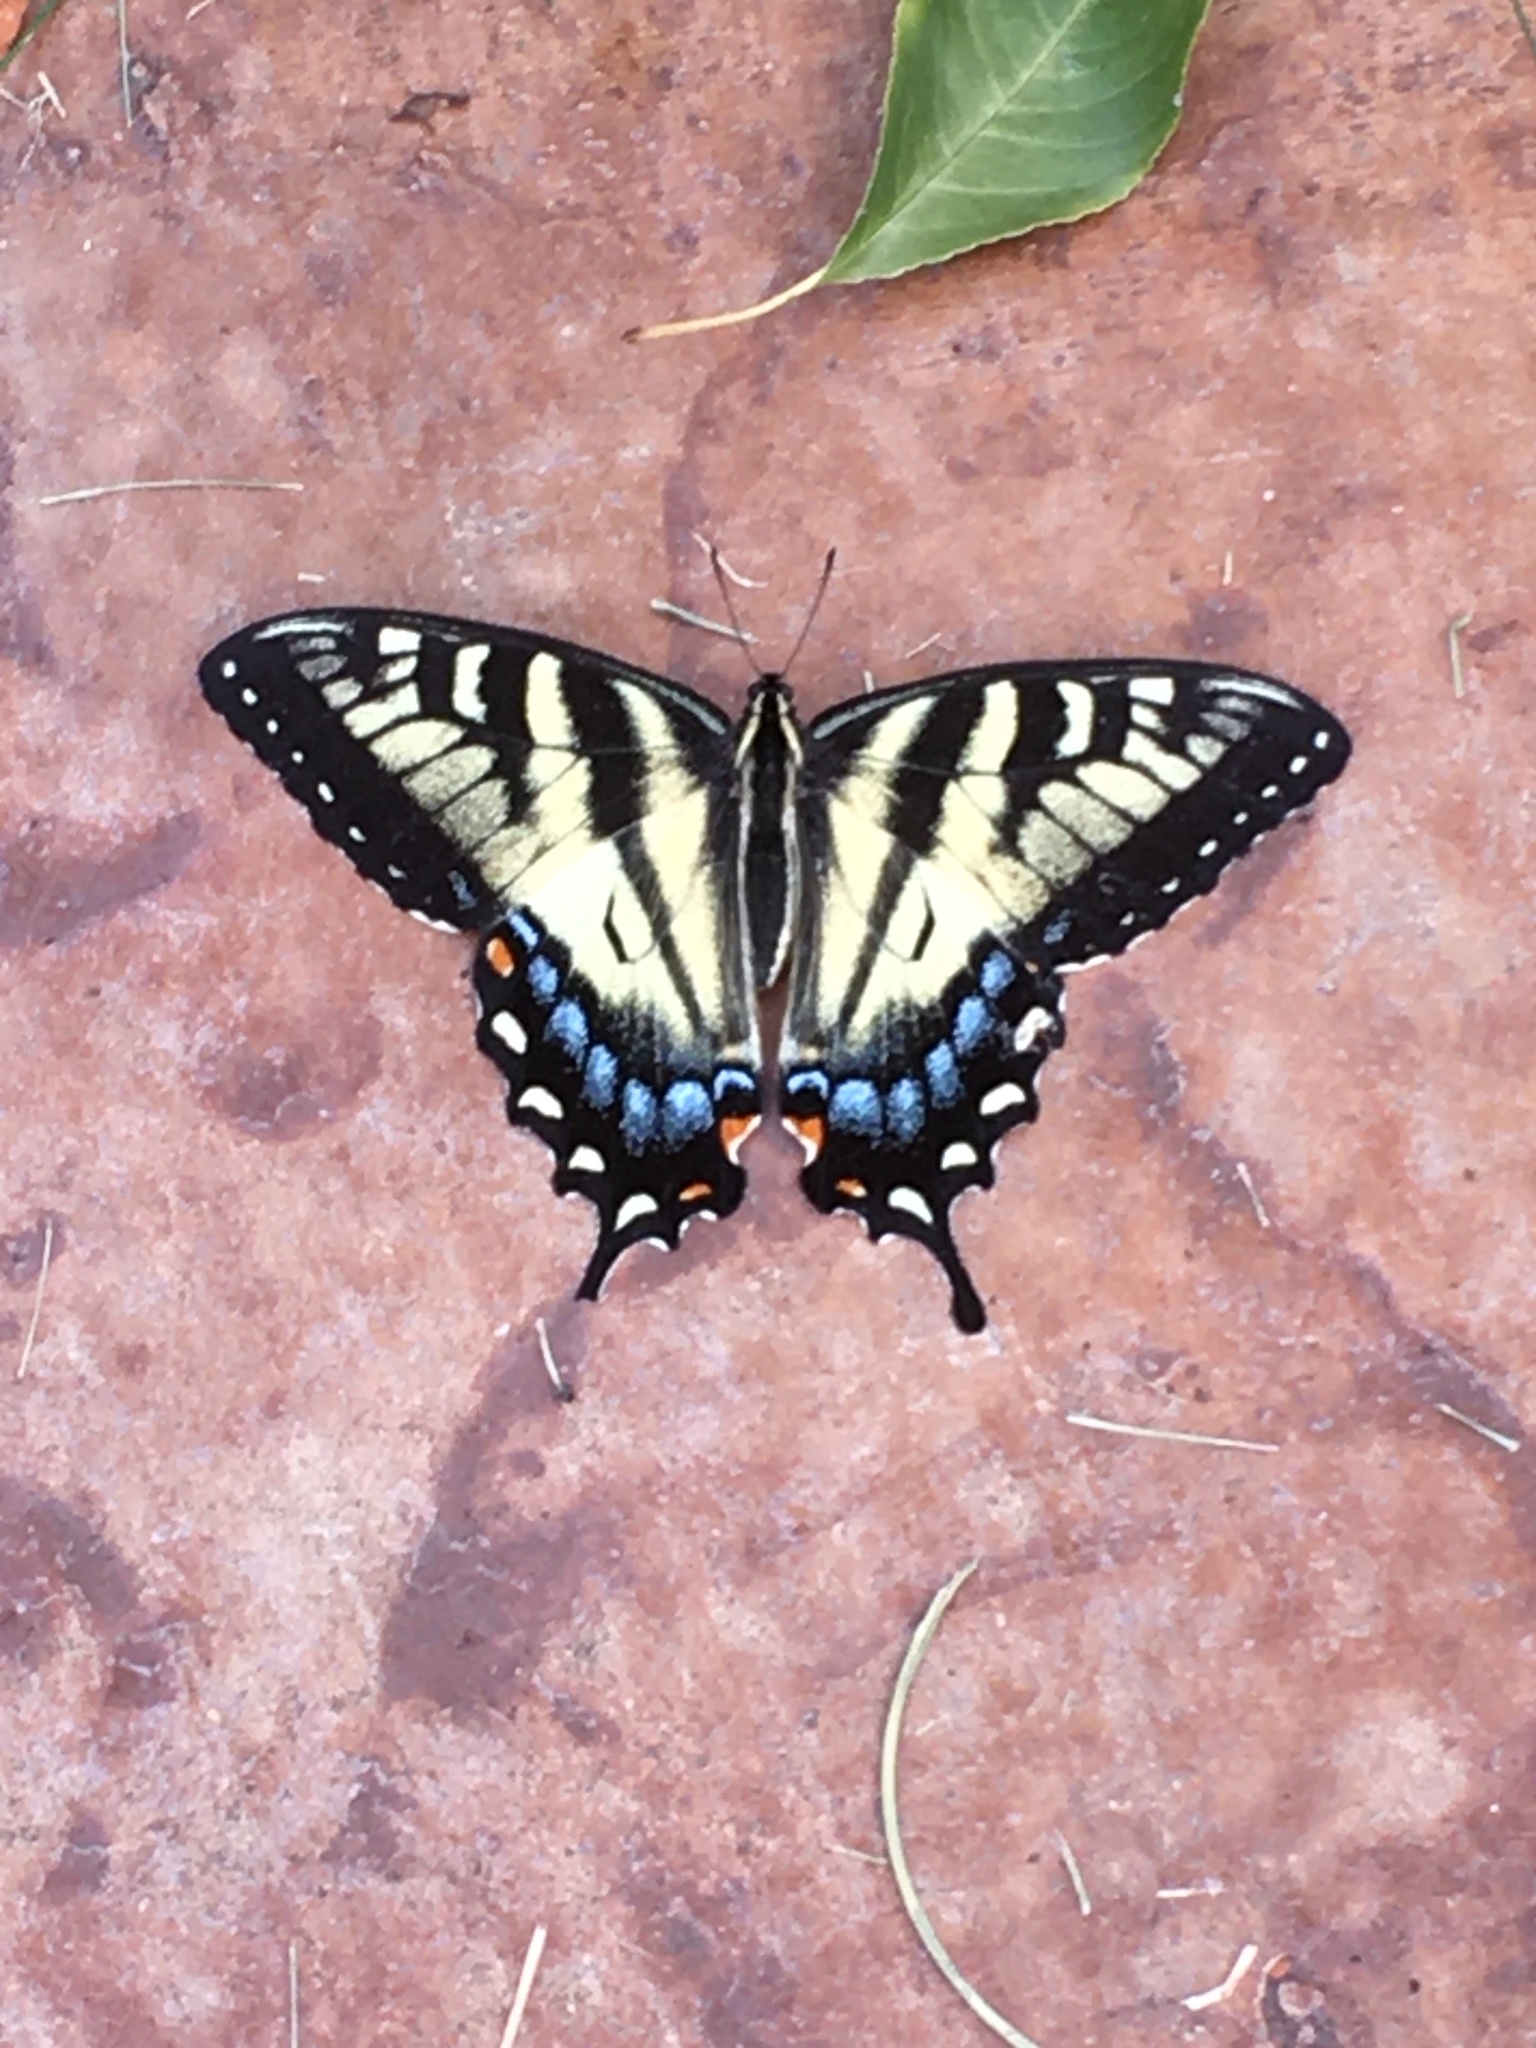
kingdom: Animalia
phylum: Arthropoda
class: Insecta
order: Lepidoptera
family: Papilionidae
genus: Papilio
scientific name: Papilio glaucus
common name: Tiger swallowtail
